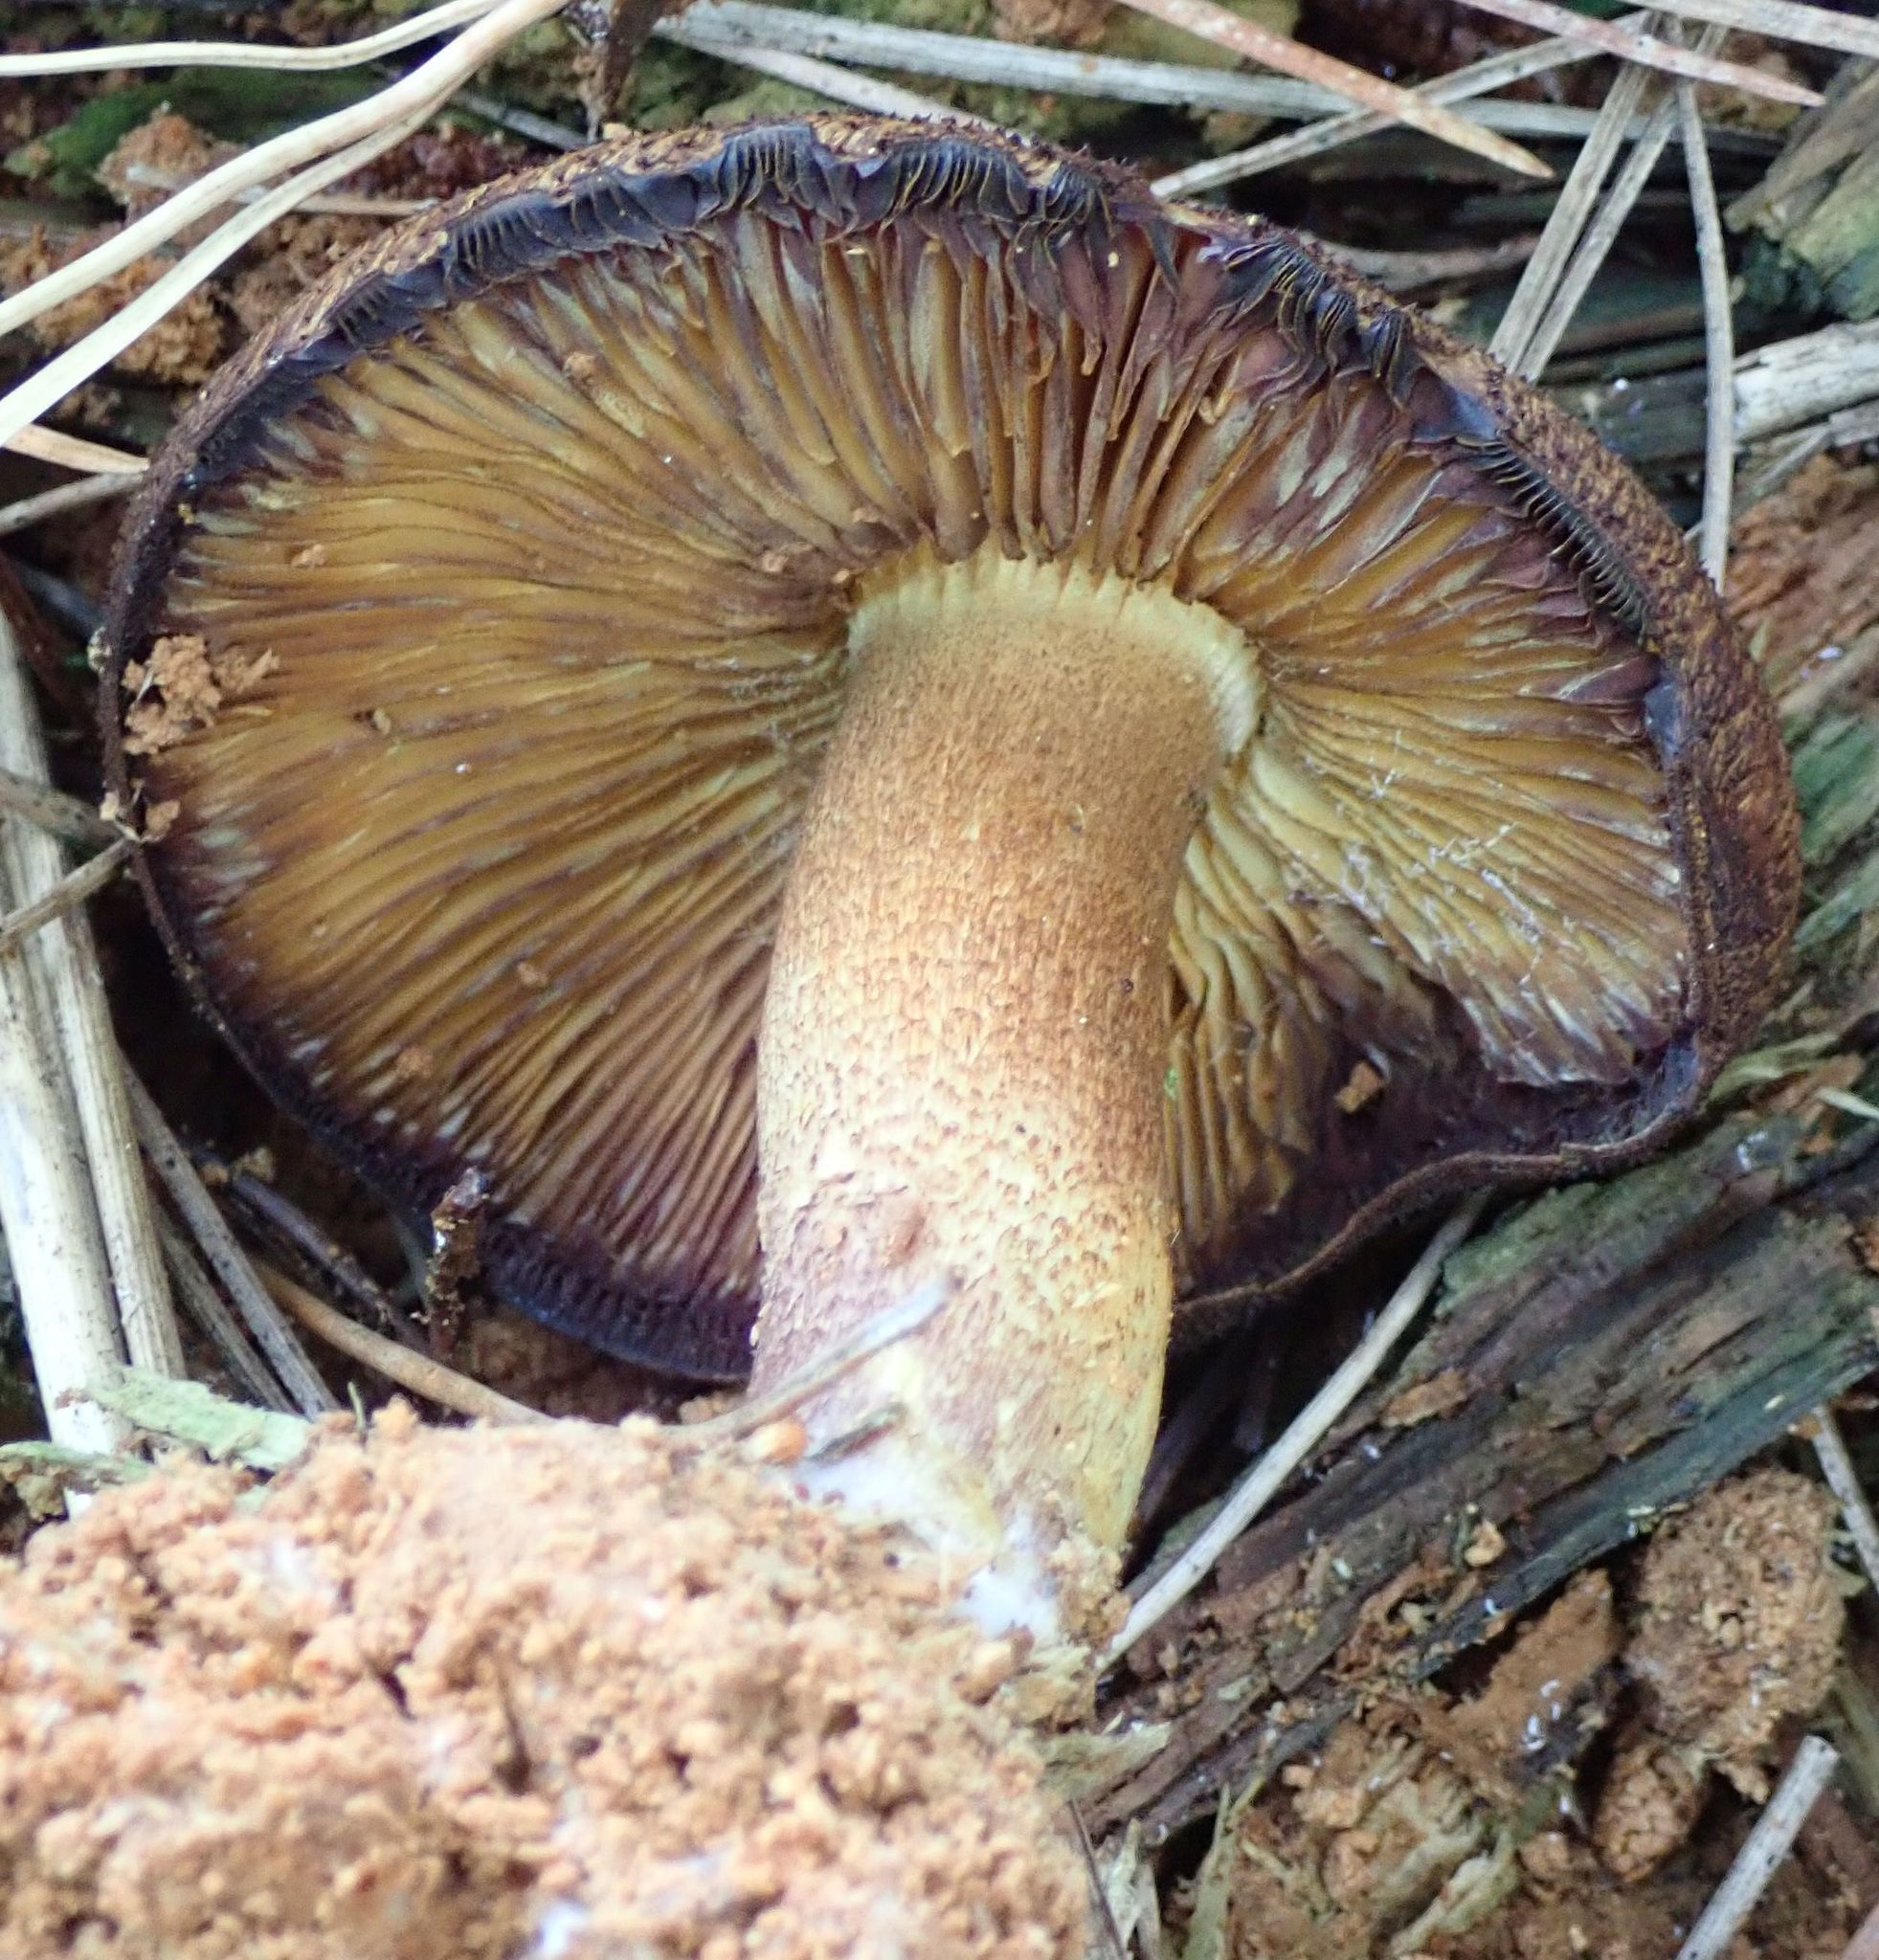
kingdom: Fungi
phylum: Basidiomycota
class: Agaricomycetes
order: Agaricales
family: Hymenogastraceae
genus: Gymnopilus
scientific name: Gymnopilus purpuratus
